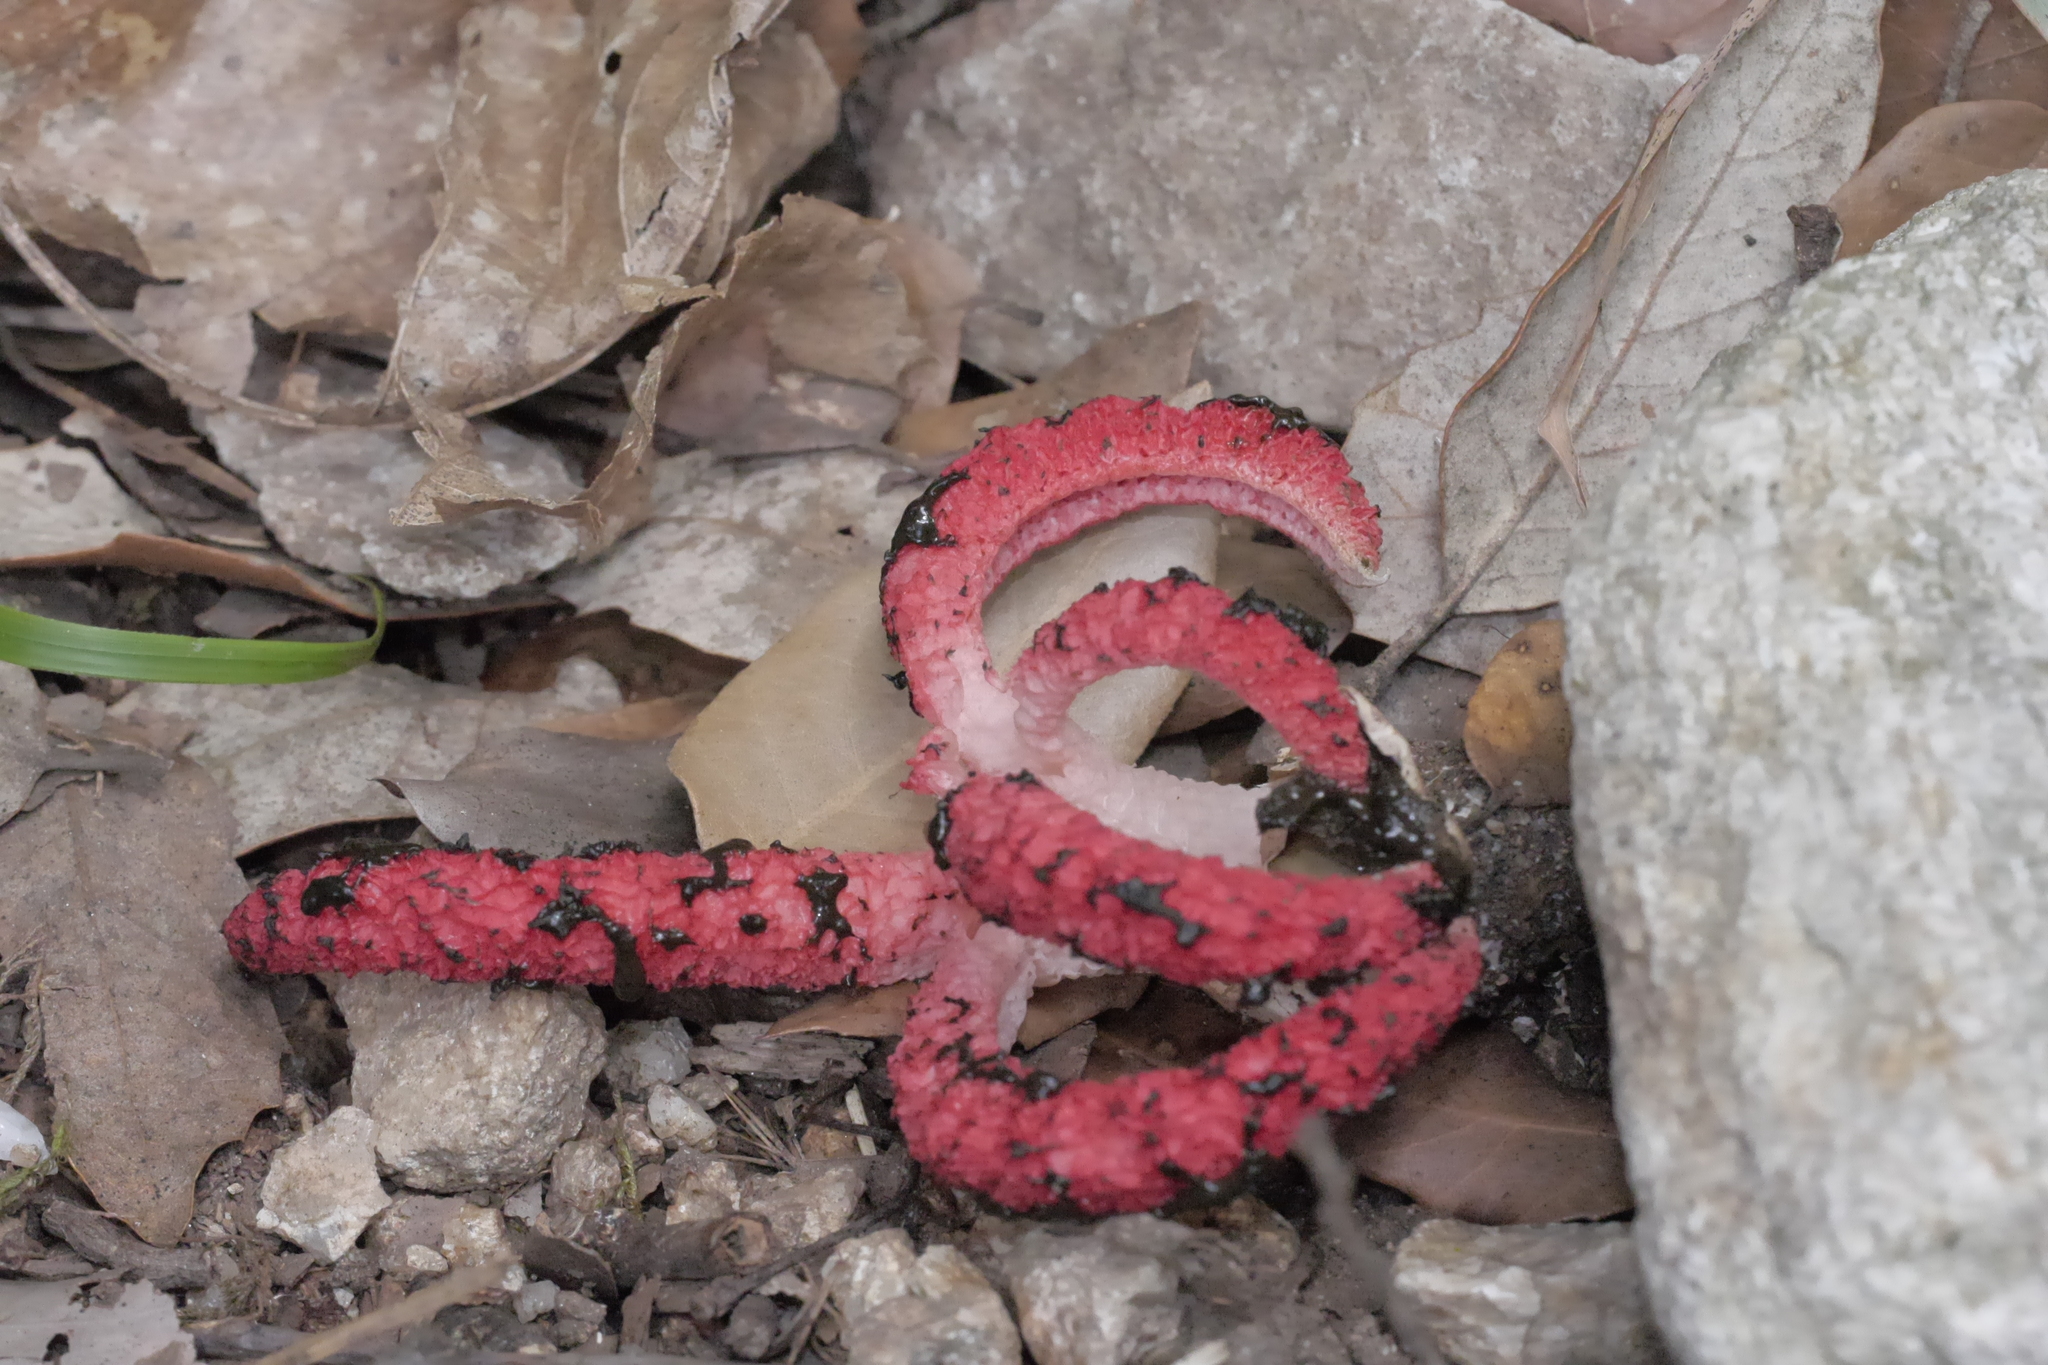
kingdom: Fungi
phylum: Basidiomycota
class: Agaricomycetes
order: Phallales
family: Phallaceae
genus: Clathrus
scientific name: Clathrus archeri
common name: Devil's fingers
